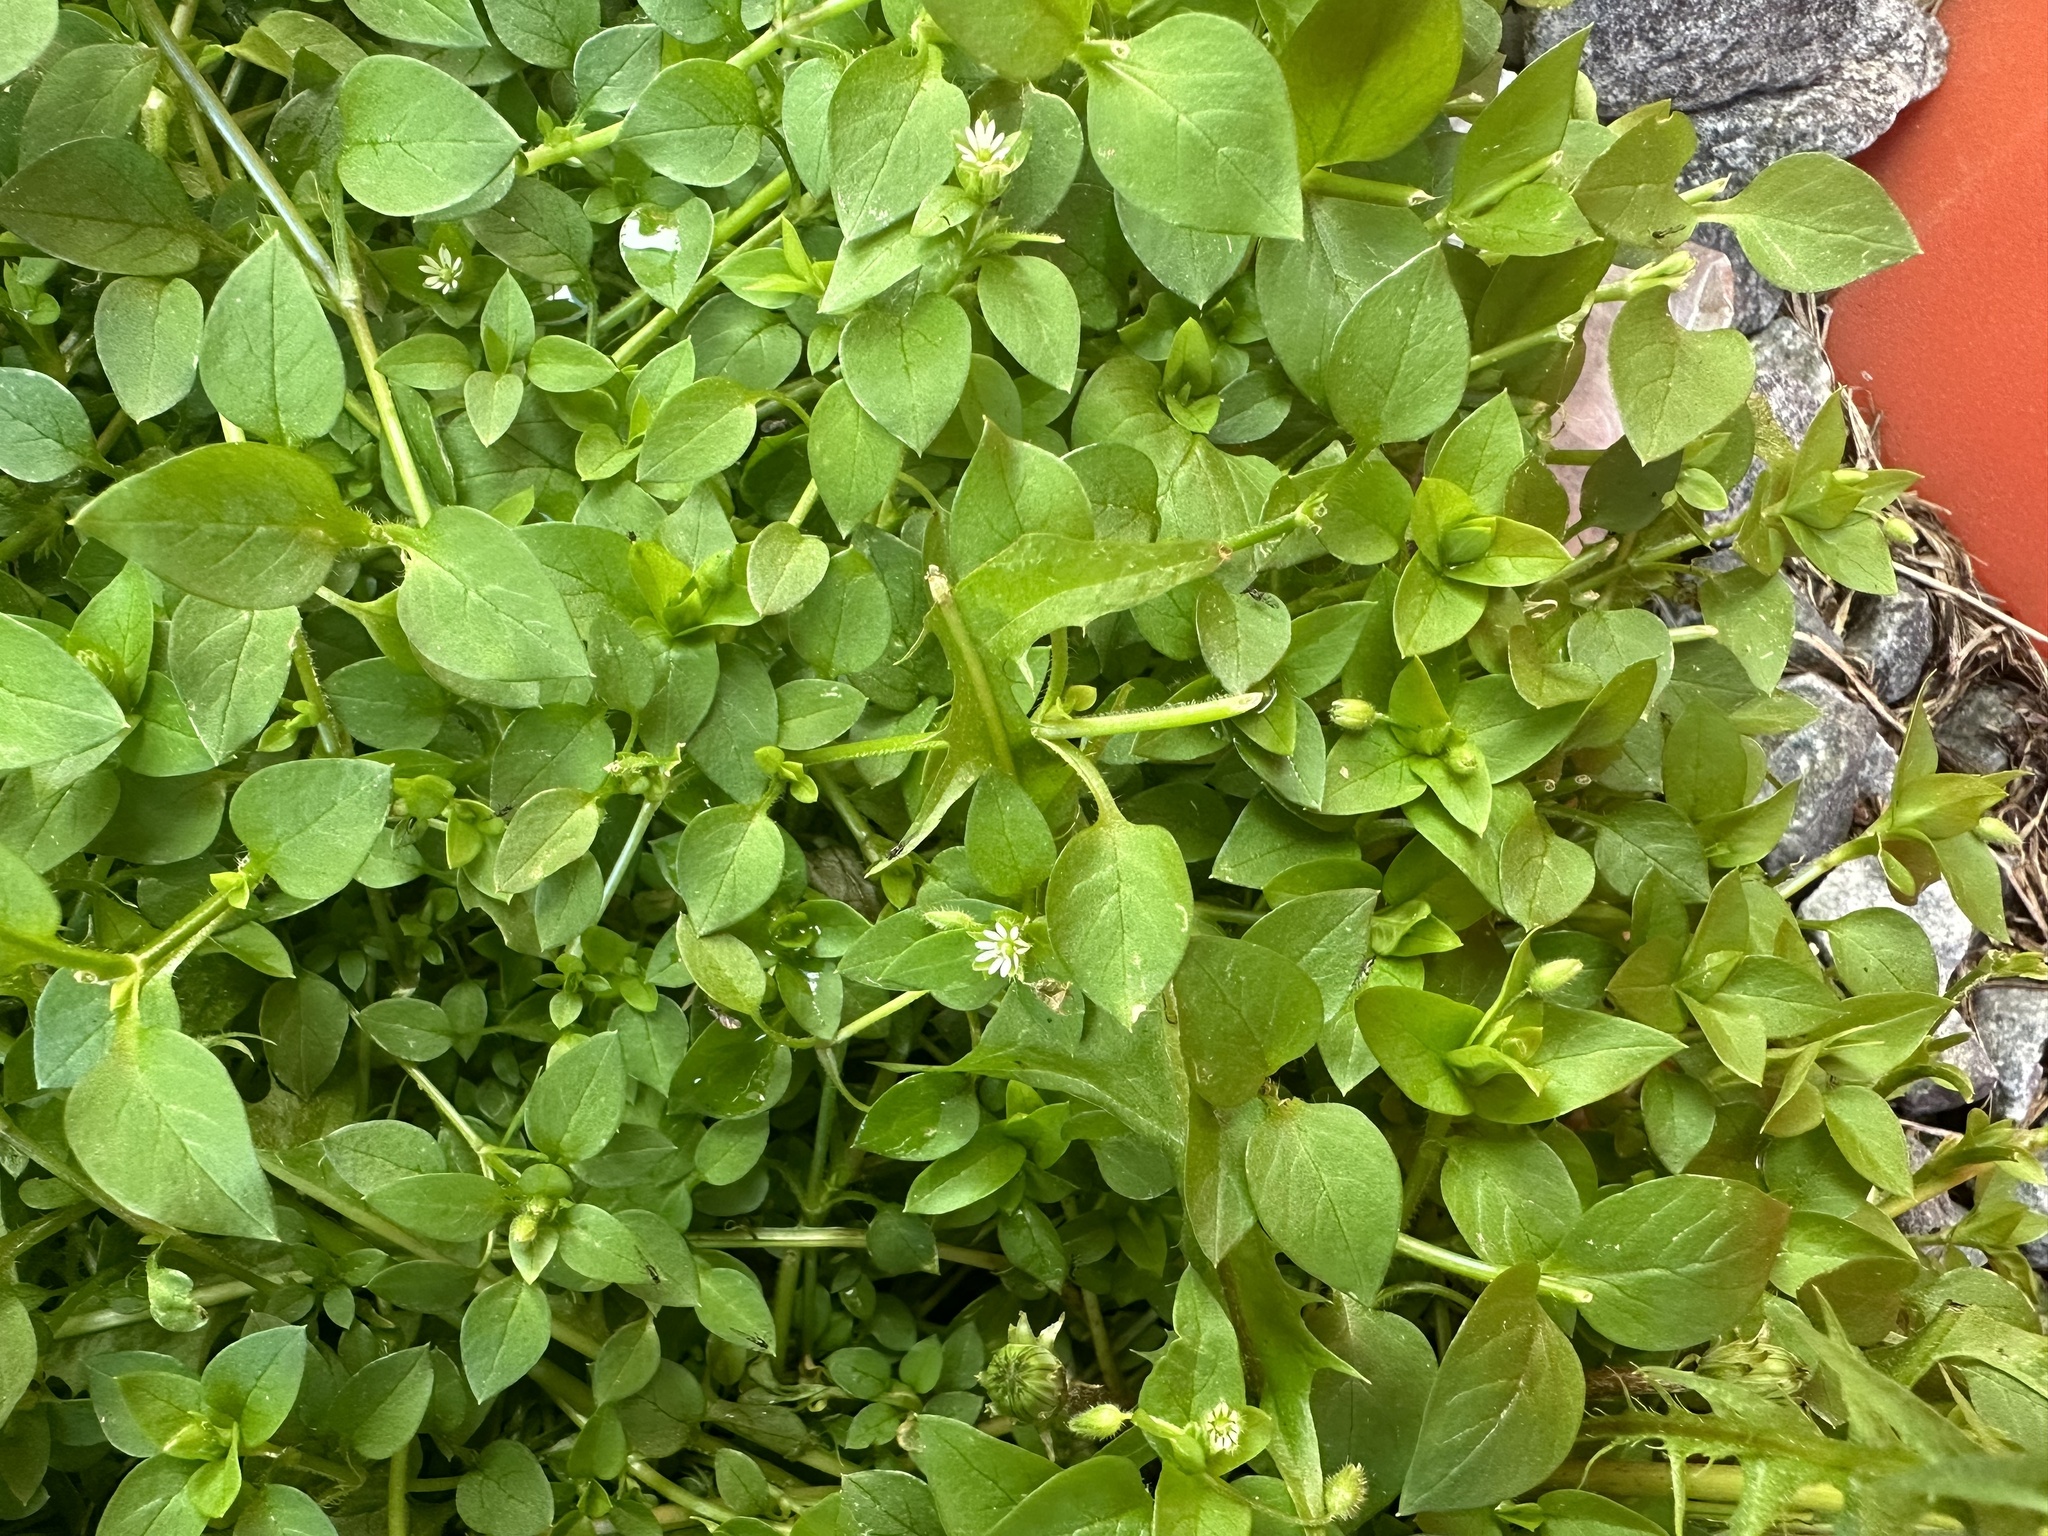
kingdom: Plantae
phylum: Tracheophyta
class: Magnoliopsida
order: Caryophyllales
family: Caryophyllaceae
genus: Stellaria
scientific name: Stellaria media
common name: Common chickweed
